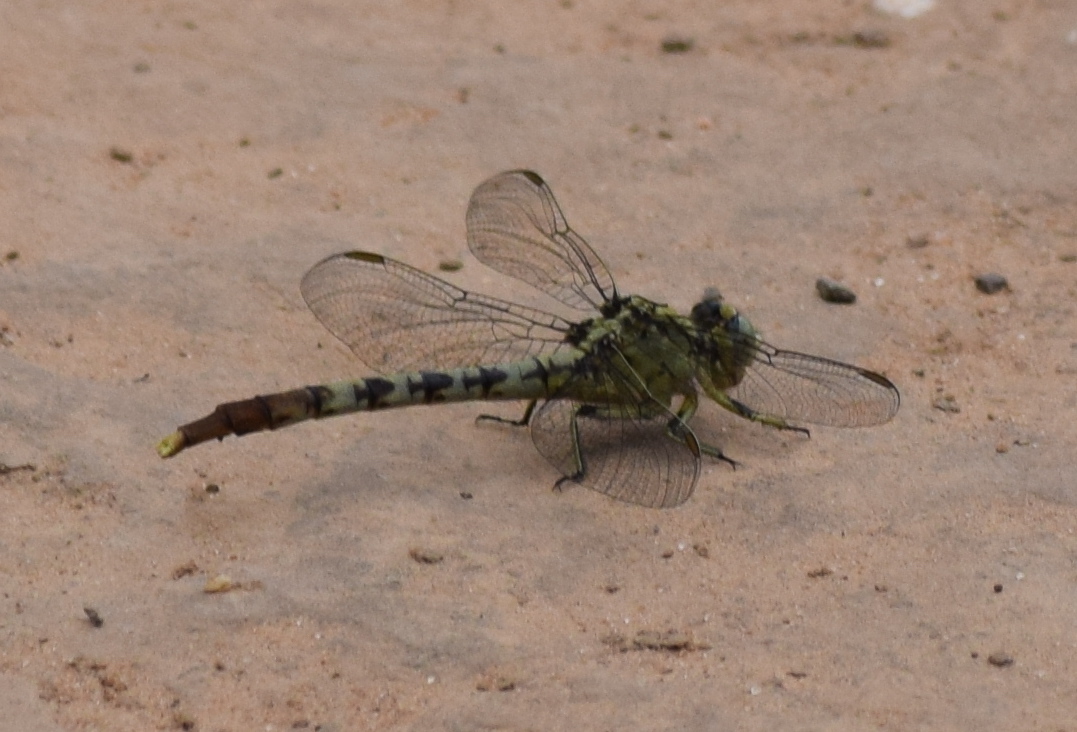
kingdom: Animalia
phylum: Arthropoda
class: Insecta
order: Odonata
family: Gomphidae
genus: Arigomphus
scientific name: Arigomphus submedianus
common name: Jade clubtail
